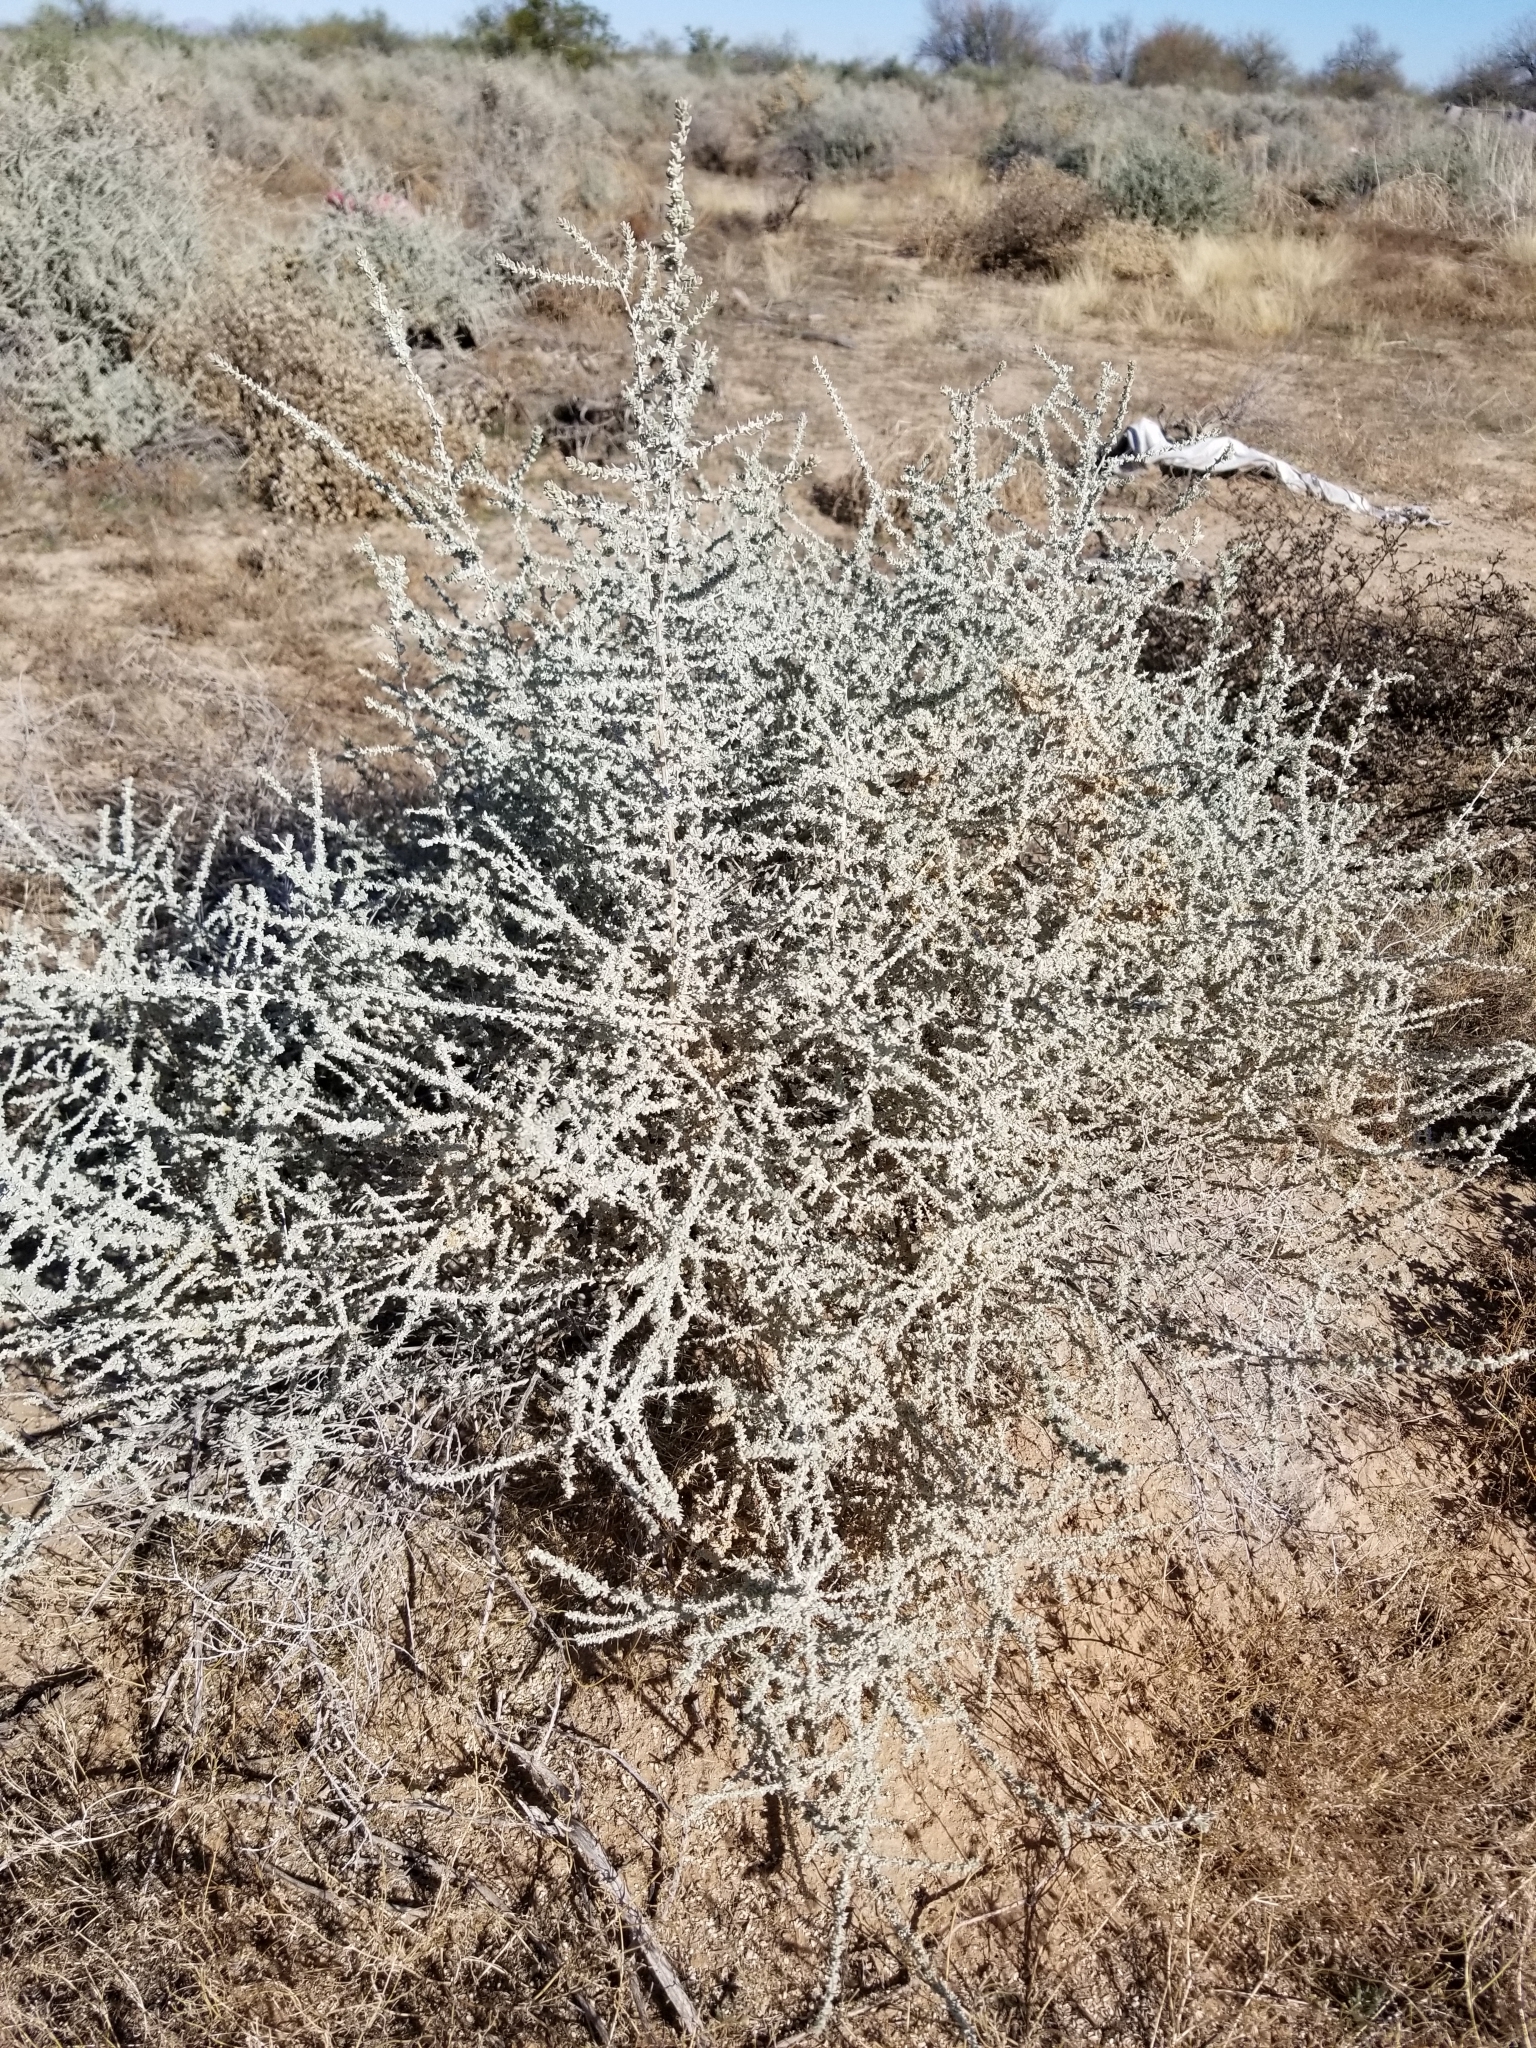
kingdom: Plantae
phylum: Tracheophyta
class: Magnoliopsida
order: Caryophyllales
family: Amaranthaceae
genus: Atriplex
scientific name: Atriplex polycarpa
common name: Desert saltbush
